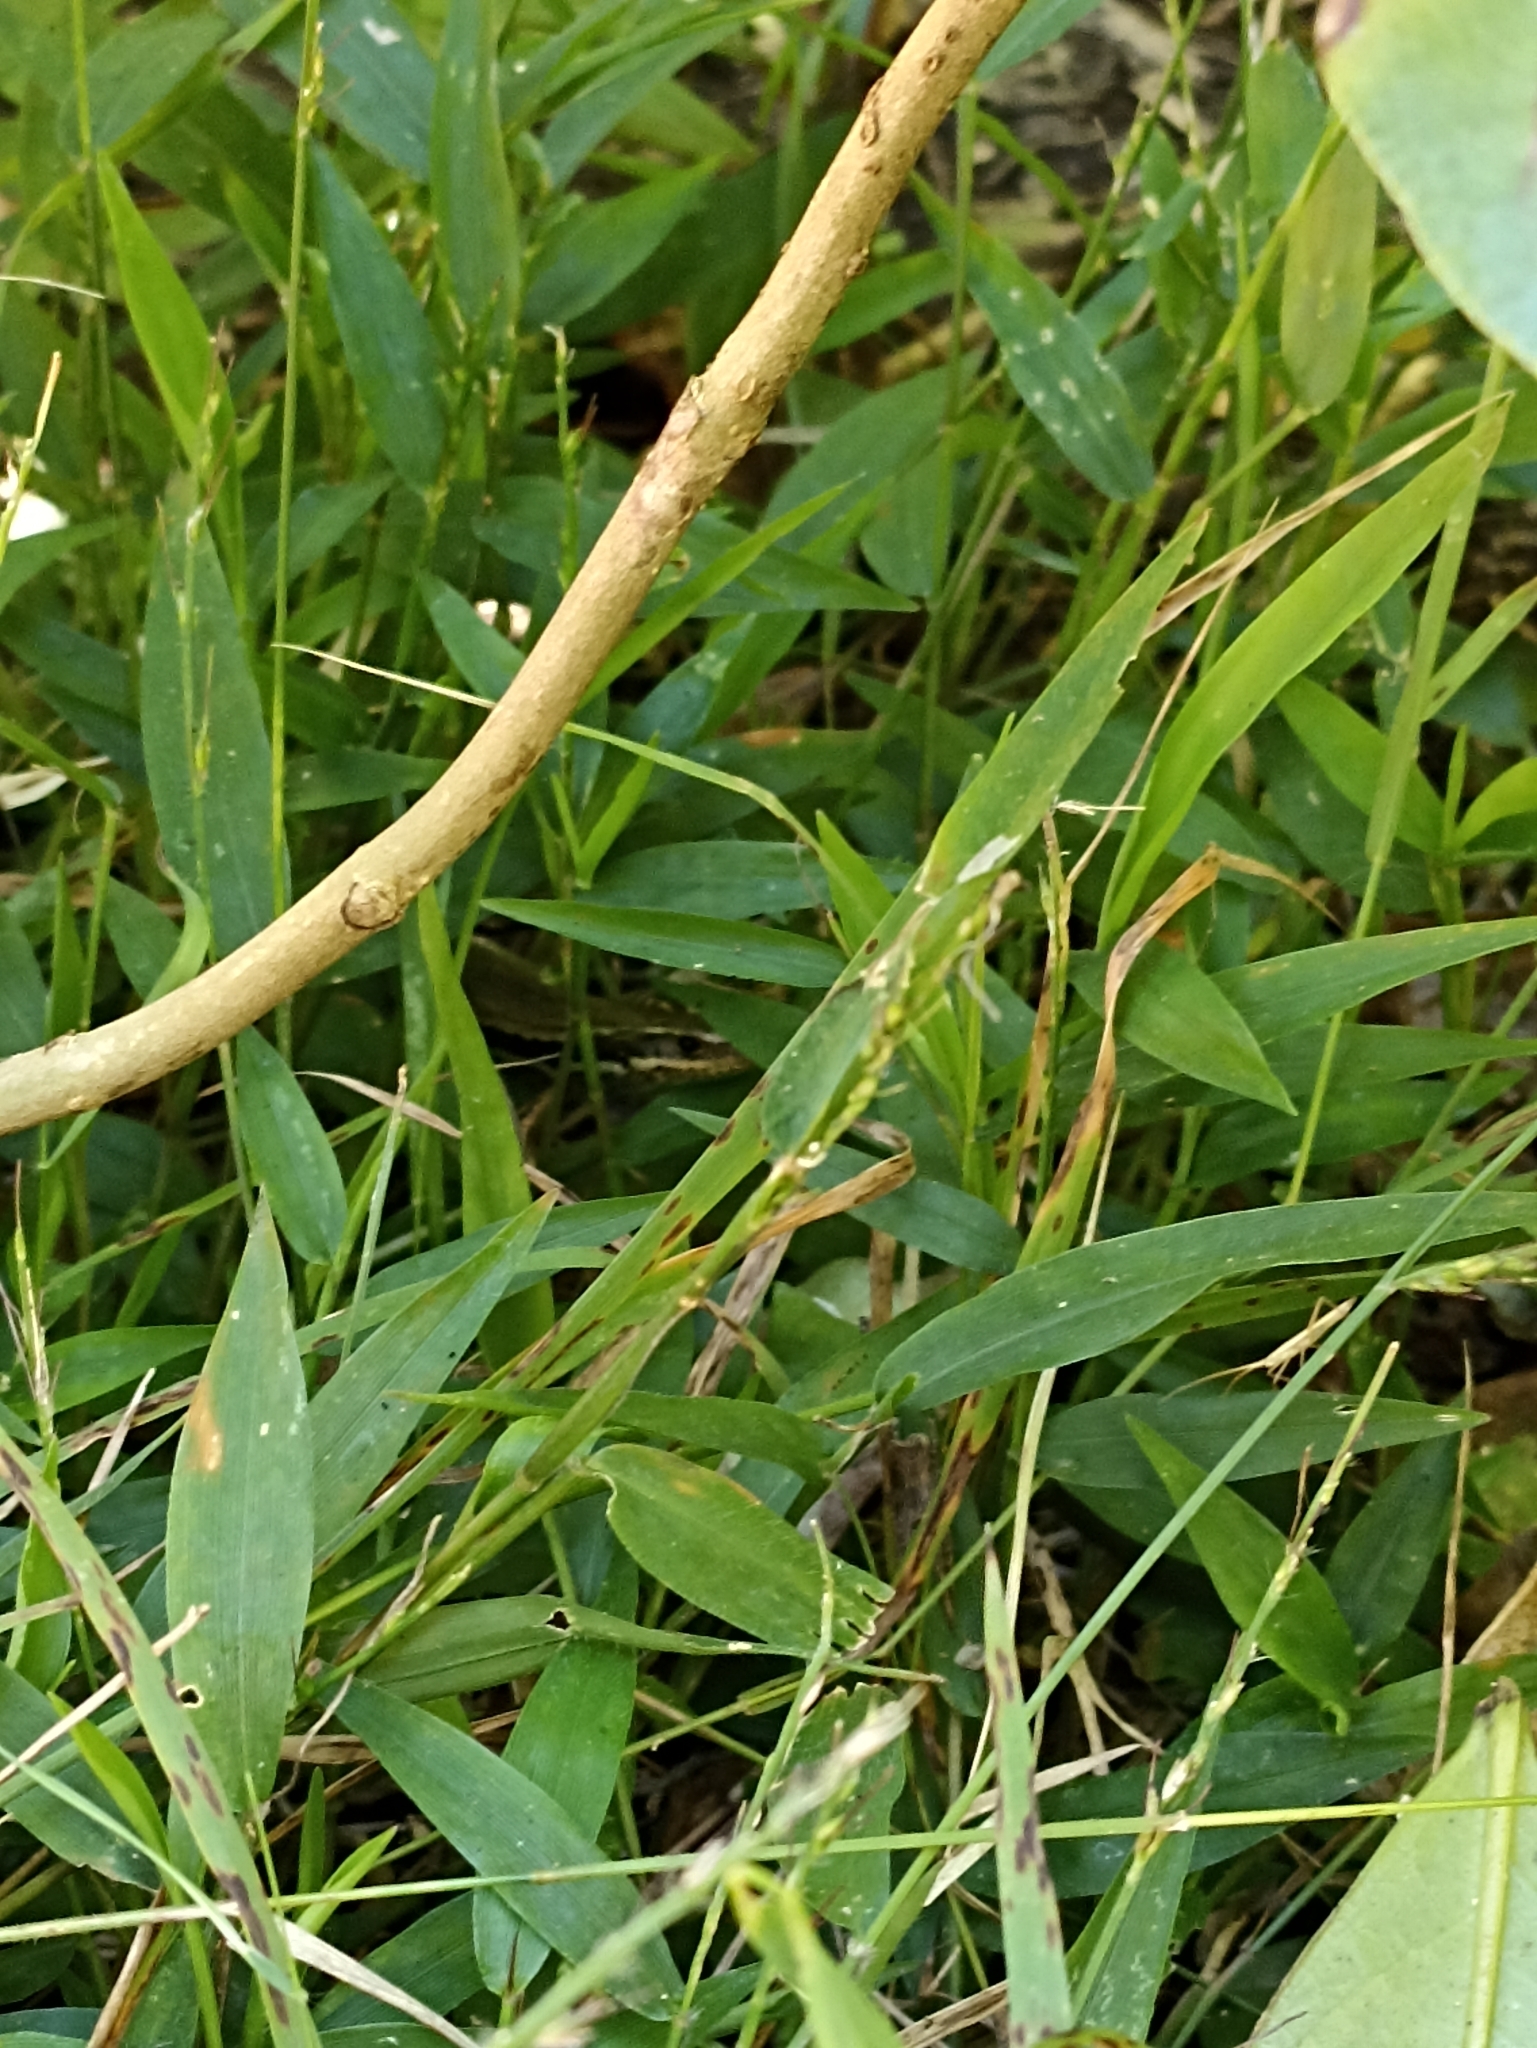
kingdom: Animalia
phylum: Chordata
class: Squamata
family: Scincidae
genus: Oligosoma
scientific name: Oligosoma moco
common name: Moco skink
